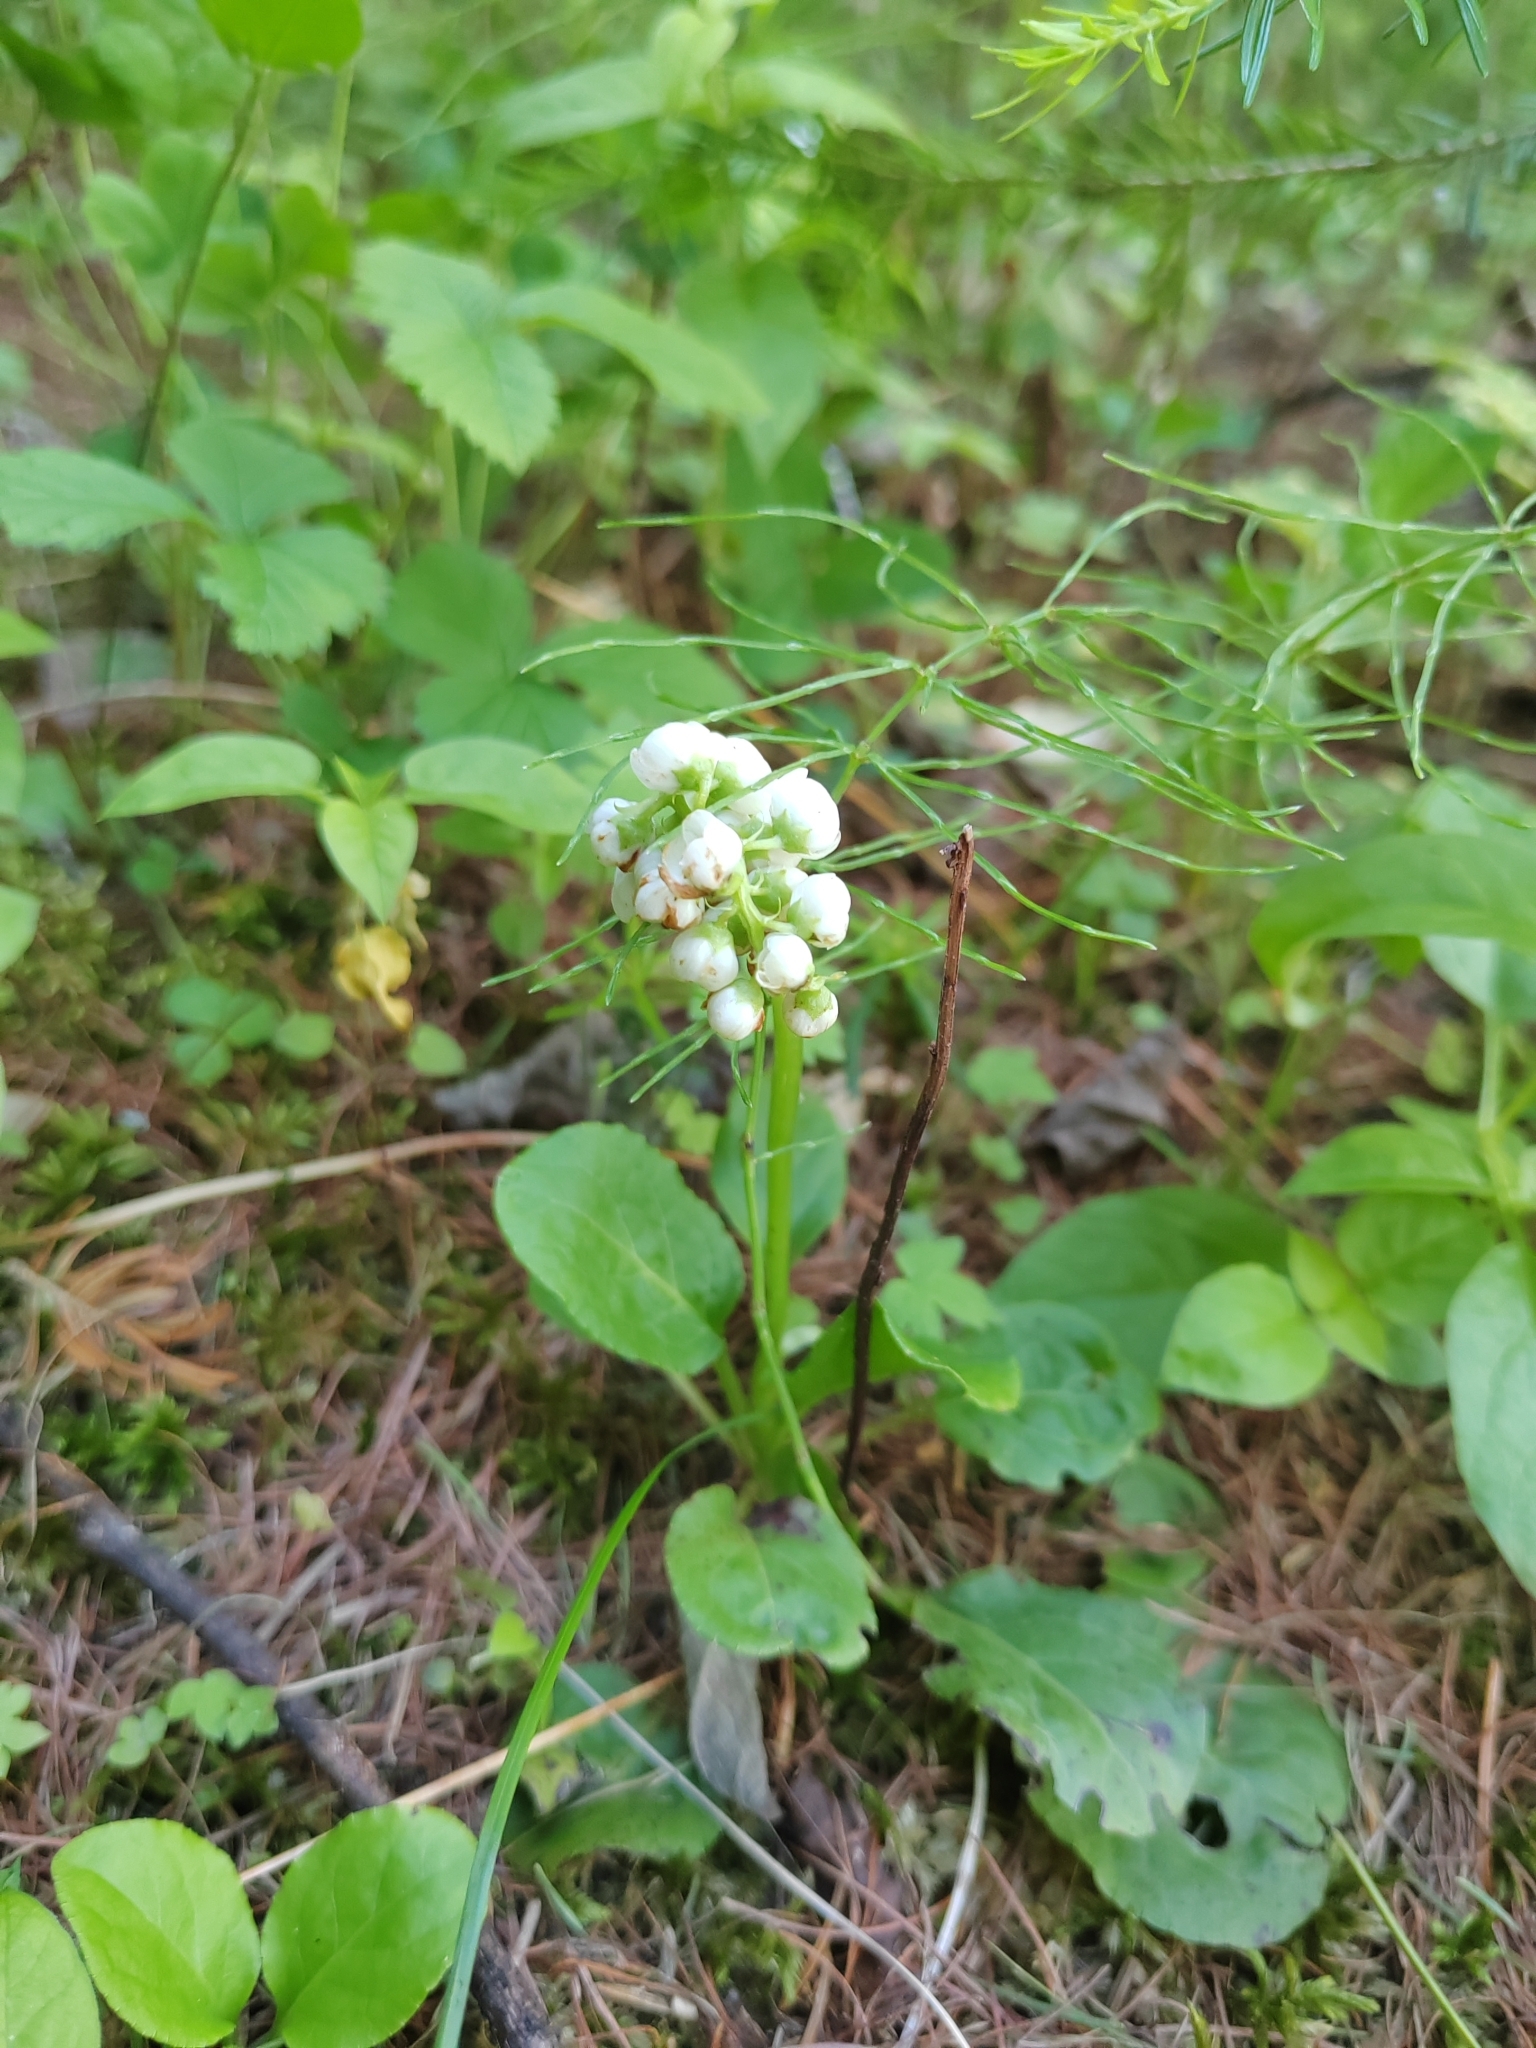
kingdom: Plantae
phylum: Tracheophyta
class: Magnoliopsida
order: Ericales
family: Ericaceae
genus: Pyrola
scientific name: Pyrola minor
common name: Common wintergreen
